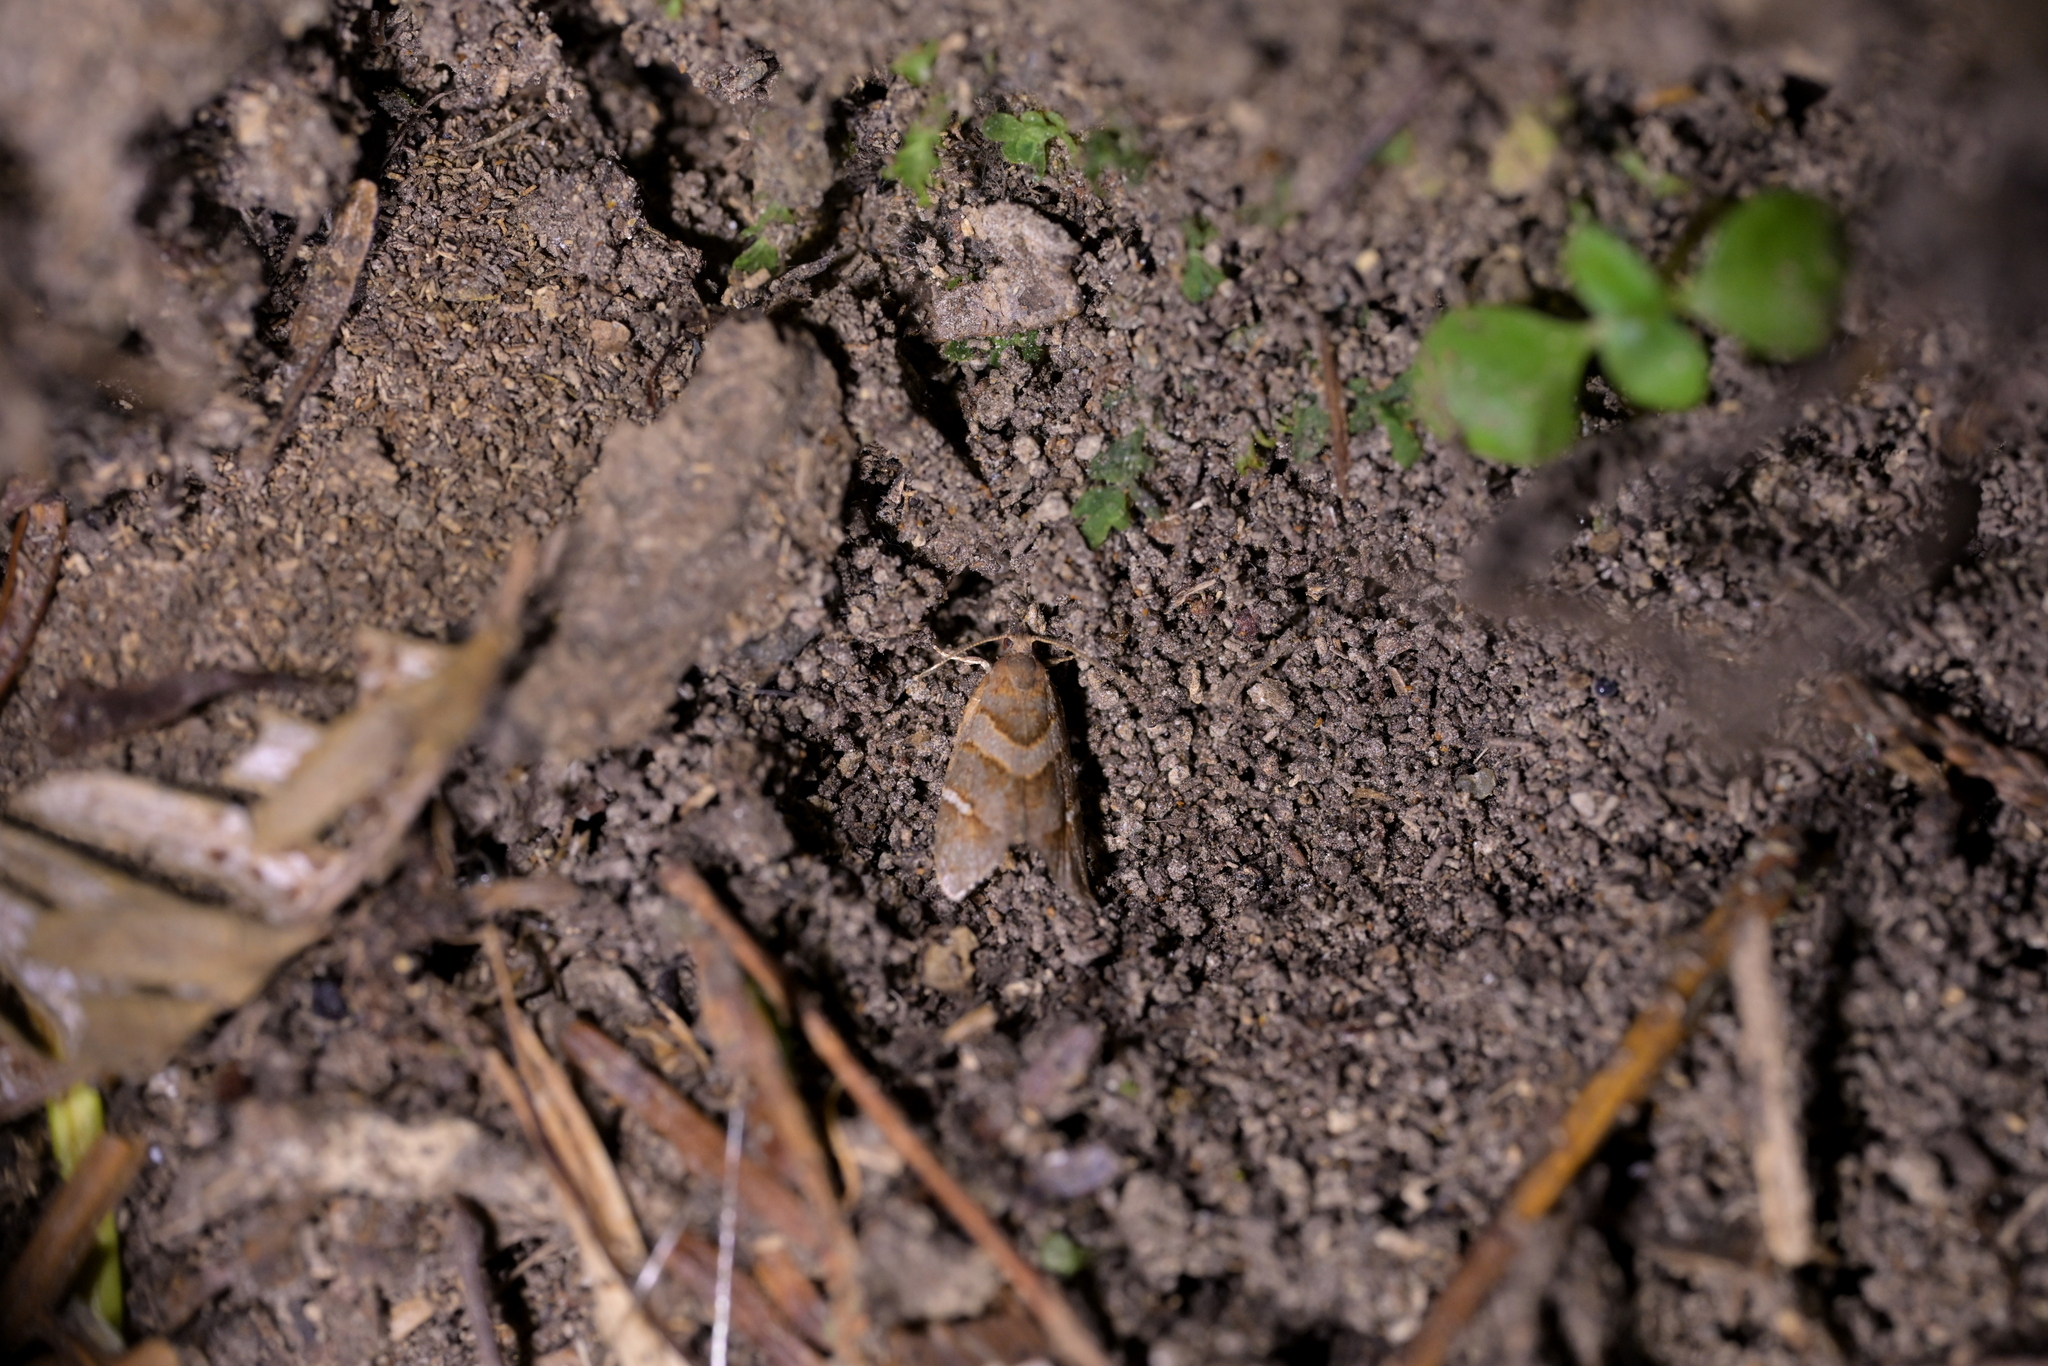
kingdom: Animalia
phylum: Arthropoda
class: Insecta
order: Lepidoptera
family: Tortricidae
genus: Ecclitica
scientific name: Ecclitica torogramma
